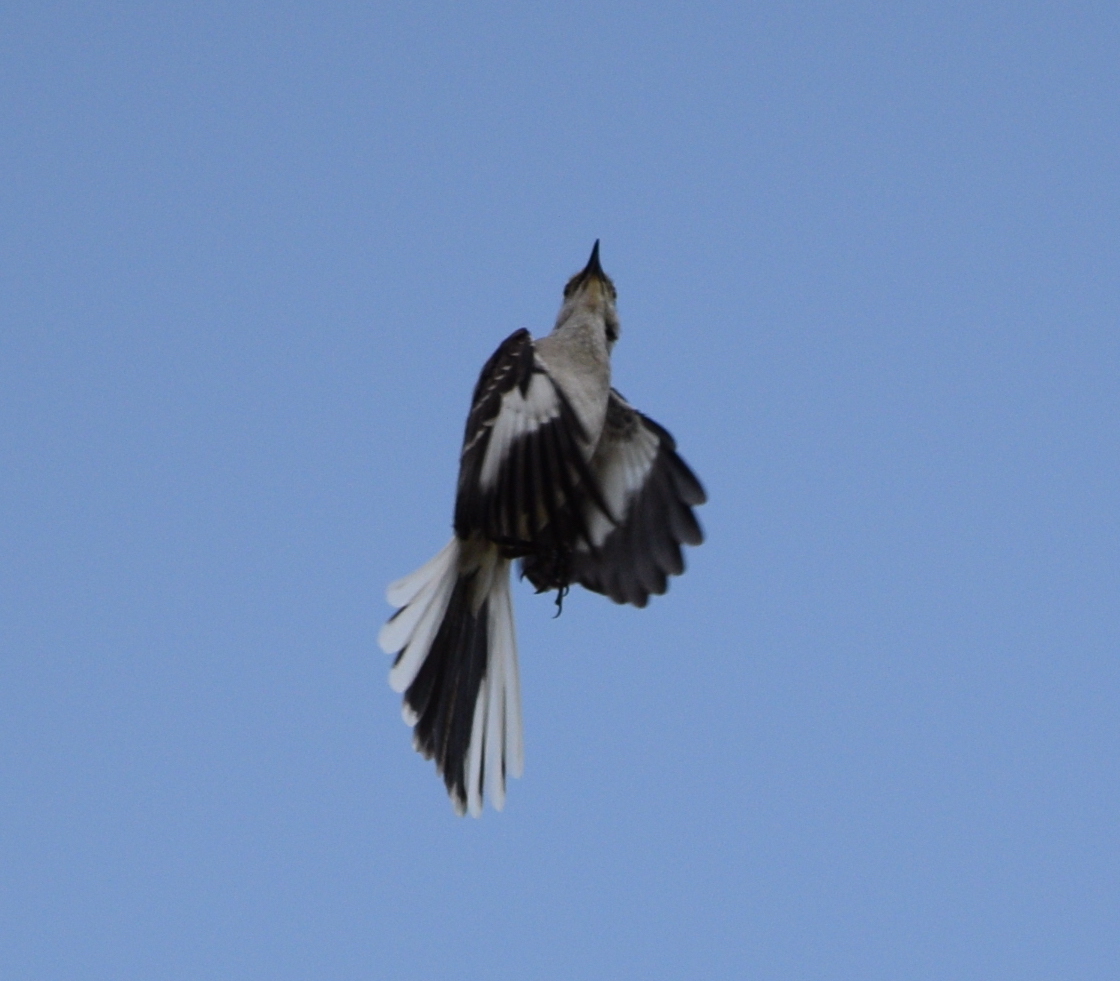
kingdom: Animalia
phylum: Chordata
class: Aves
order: Passeriformes
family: Mimidae
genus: Mimus
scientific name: Mimus polyglottos
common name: Northern mockingbird
